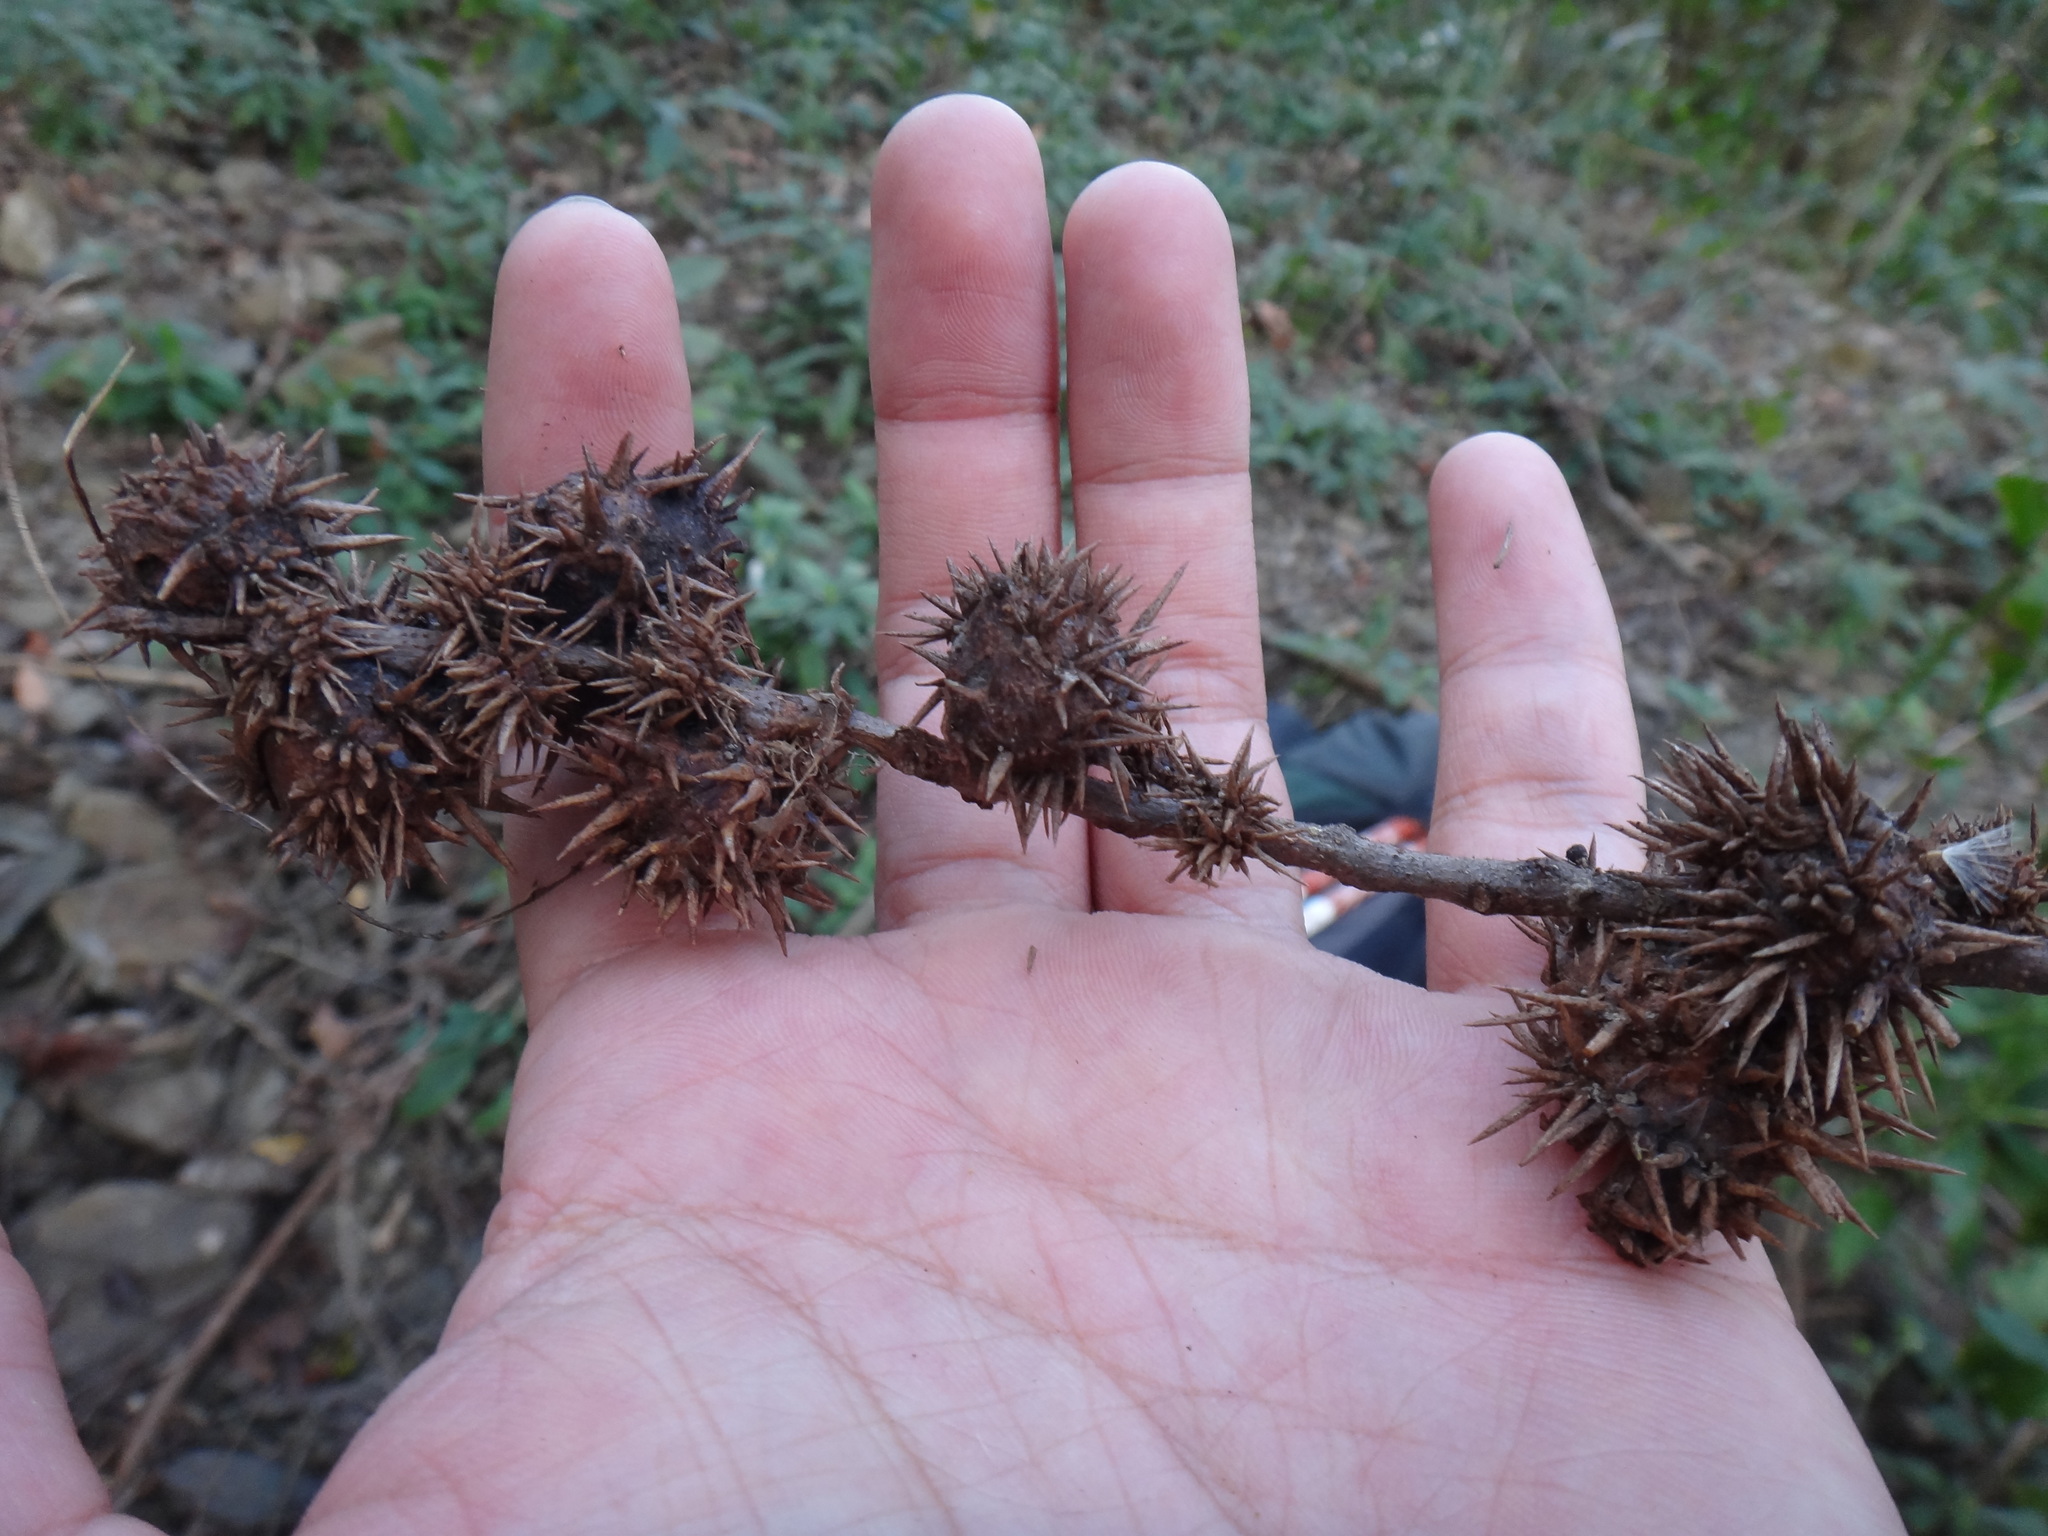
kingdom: Plantae
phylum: Tracheophyta
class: Magnoliopsida
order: Fagales
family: Fagaceae
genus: Castanopsis
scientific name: Castanopsis formosana
